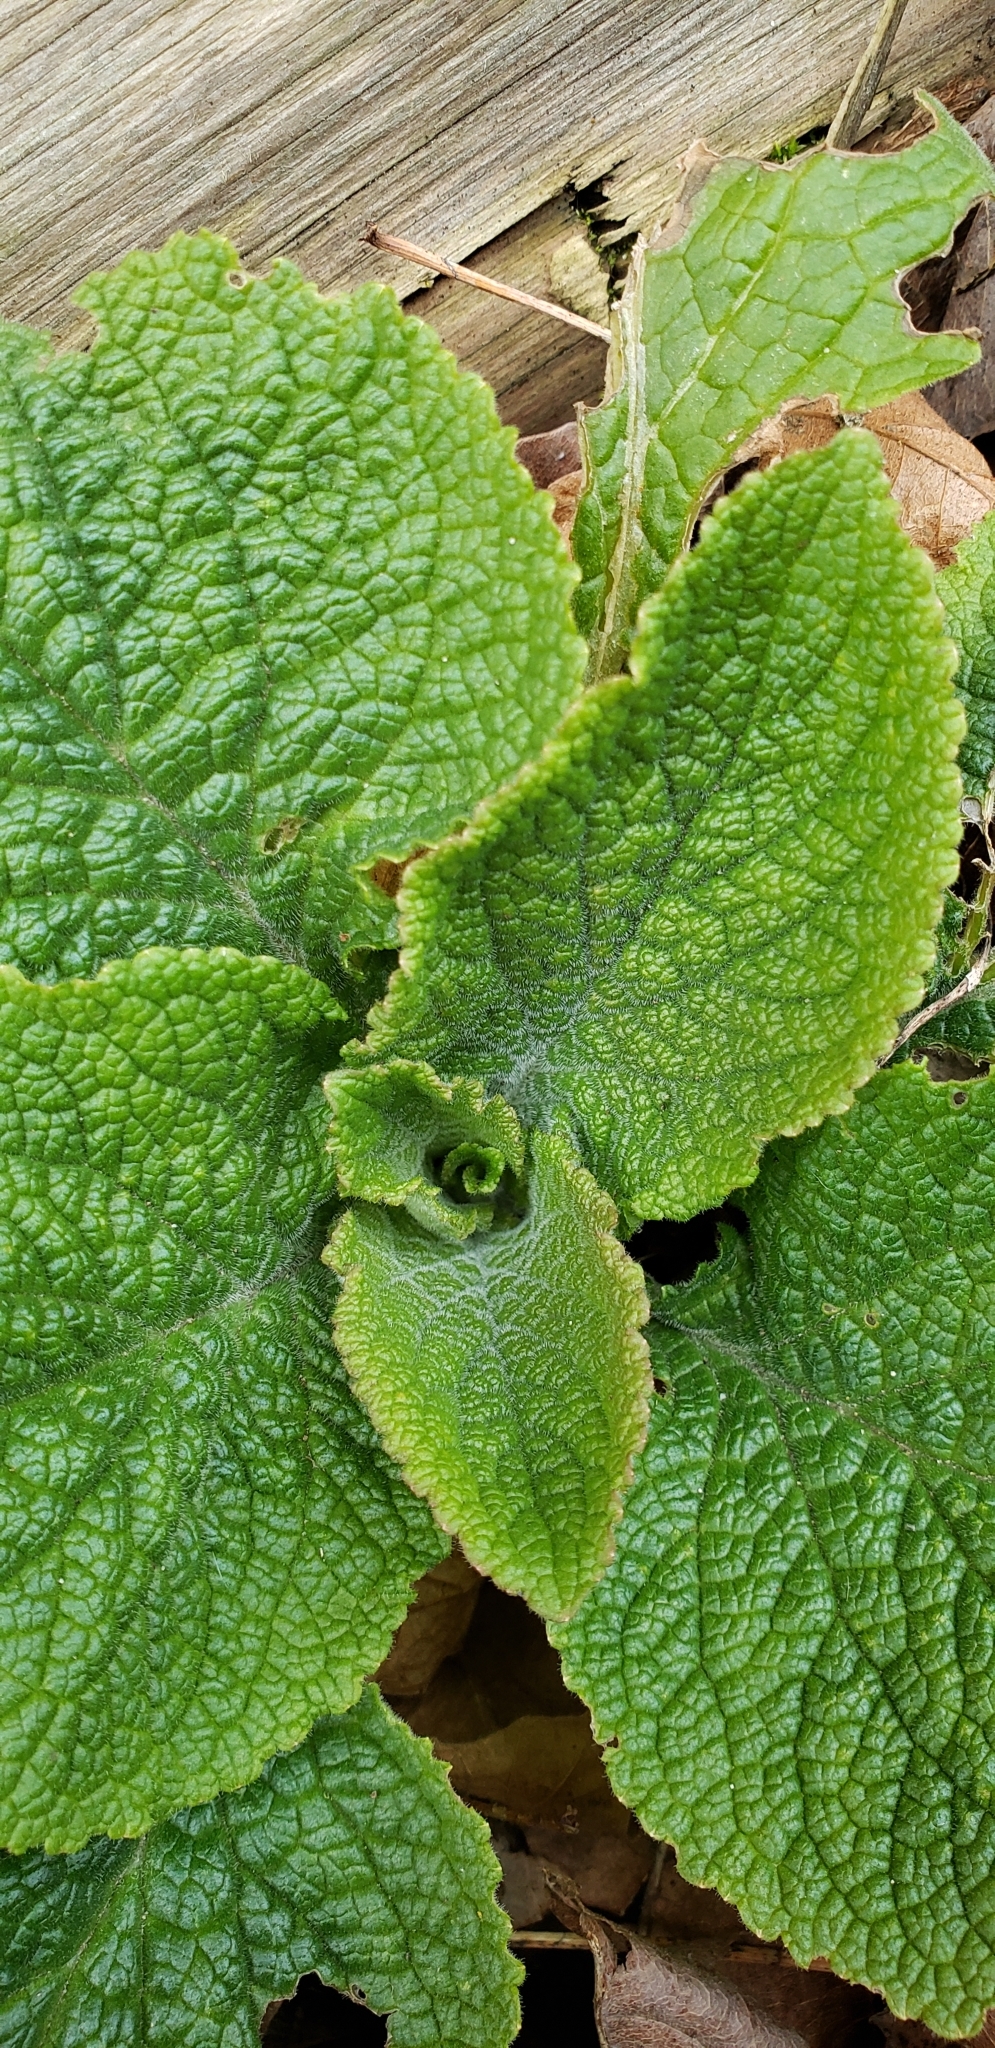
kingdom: Plantae
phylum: Tracheophyta
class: Magnoliopsida
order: Lamiales
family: Plantaginaceae
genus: Digitalis
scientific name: Digitalis purpurea
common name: Foxglove
